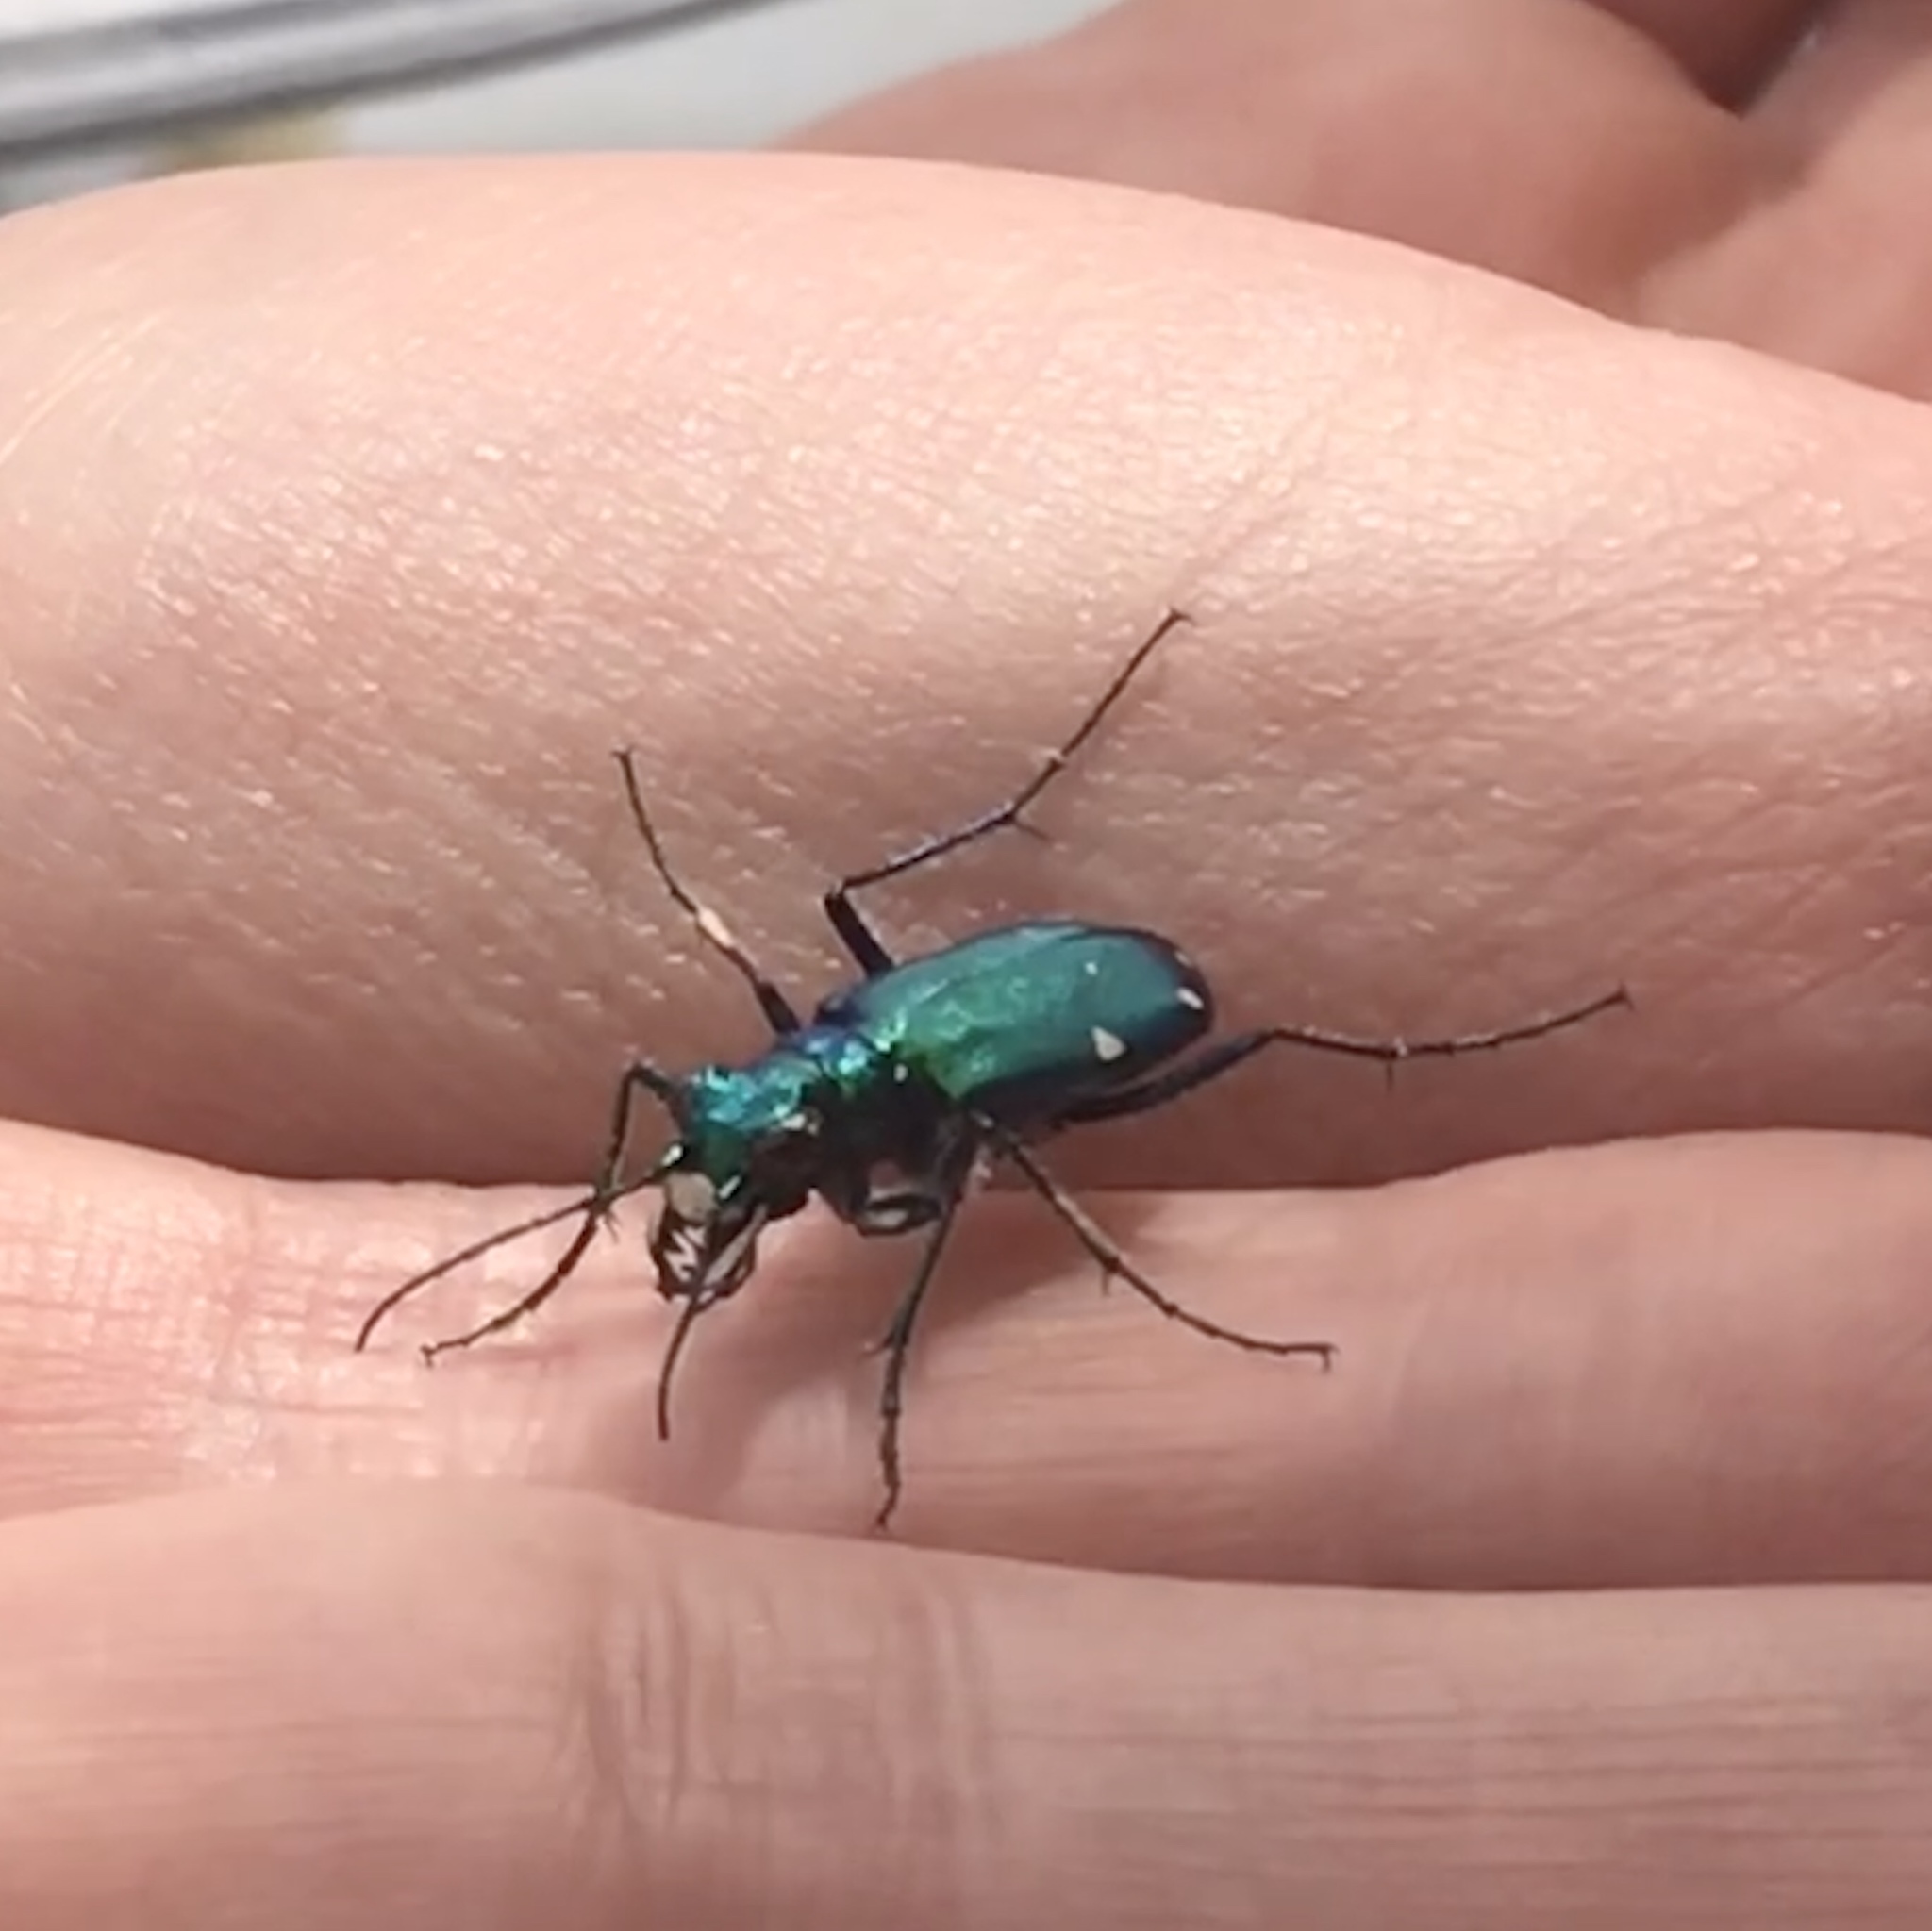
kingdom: Animalia
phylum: Arthropoda
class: Insecta
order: Coleoptera
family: Carabidae
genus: Cicindela
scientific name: Cicindela sexguttata
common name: Six-spotted tiger beetle
